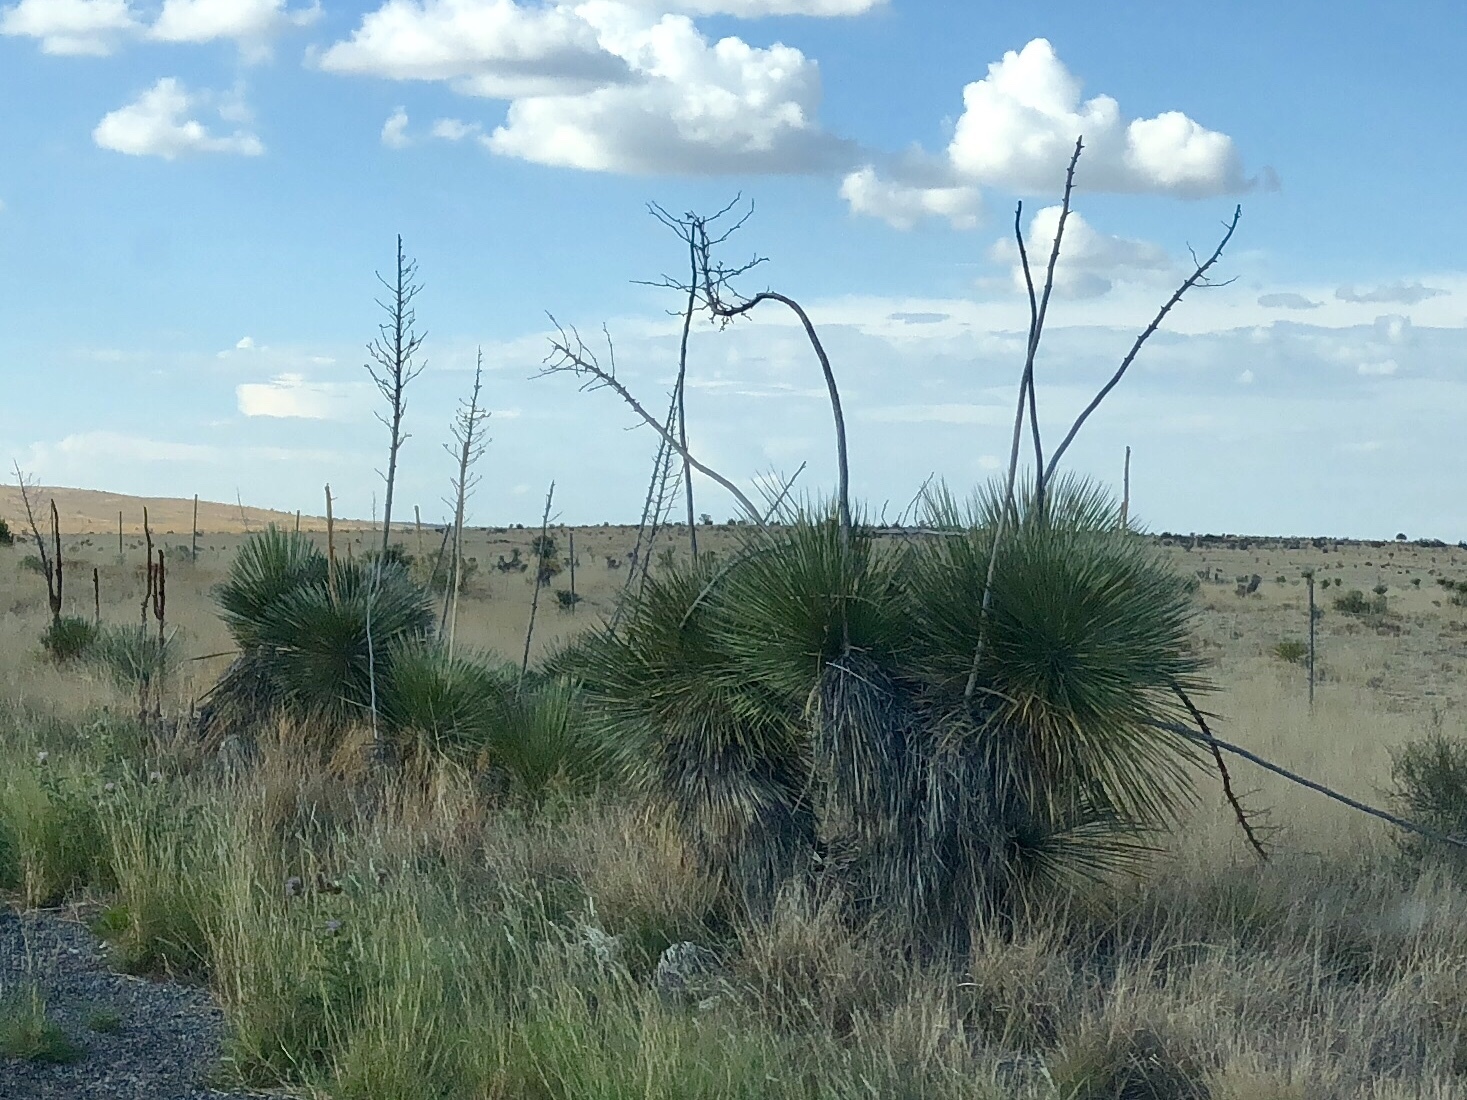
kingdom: Plantae
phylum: Tracheophyta
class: Liliopsida
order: Asparagales
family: Asparagaceae
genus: Yucca
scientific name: Yucca elata
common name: Palmella
